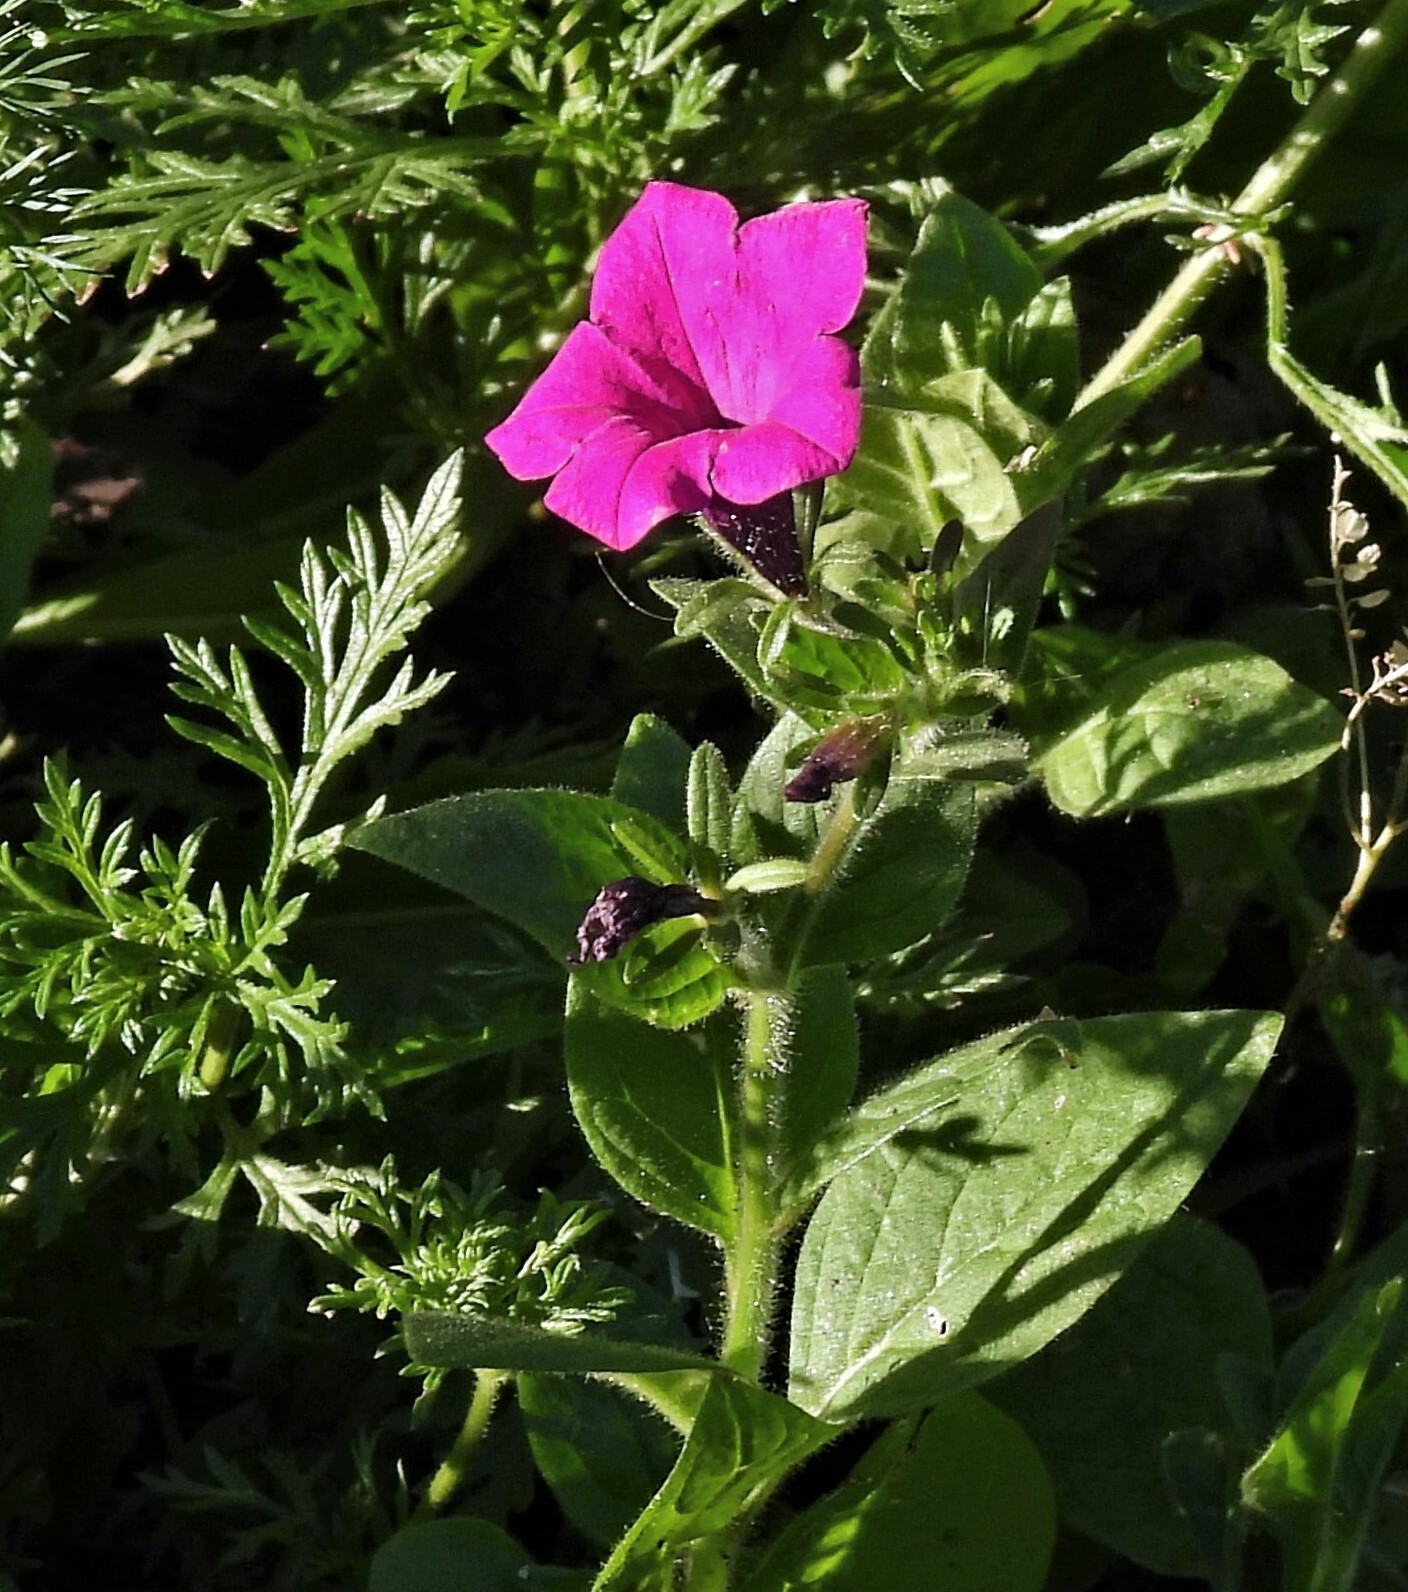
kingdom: Plantae
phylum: Tracheophyta
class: Magnoliopsida
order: Solanales
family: Solanaceae
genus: Petunia
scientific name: Petunia inflata
